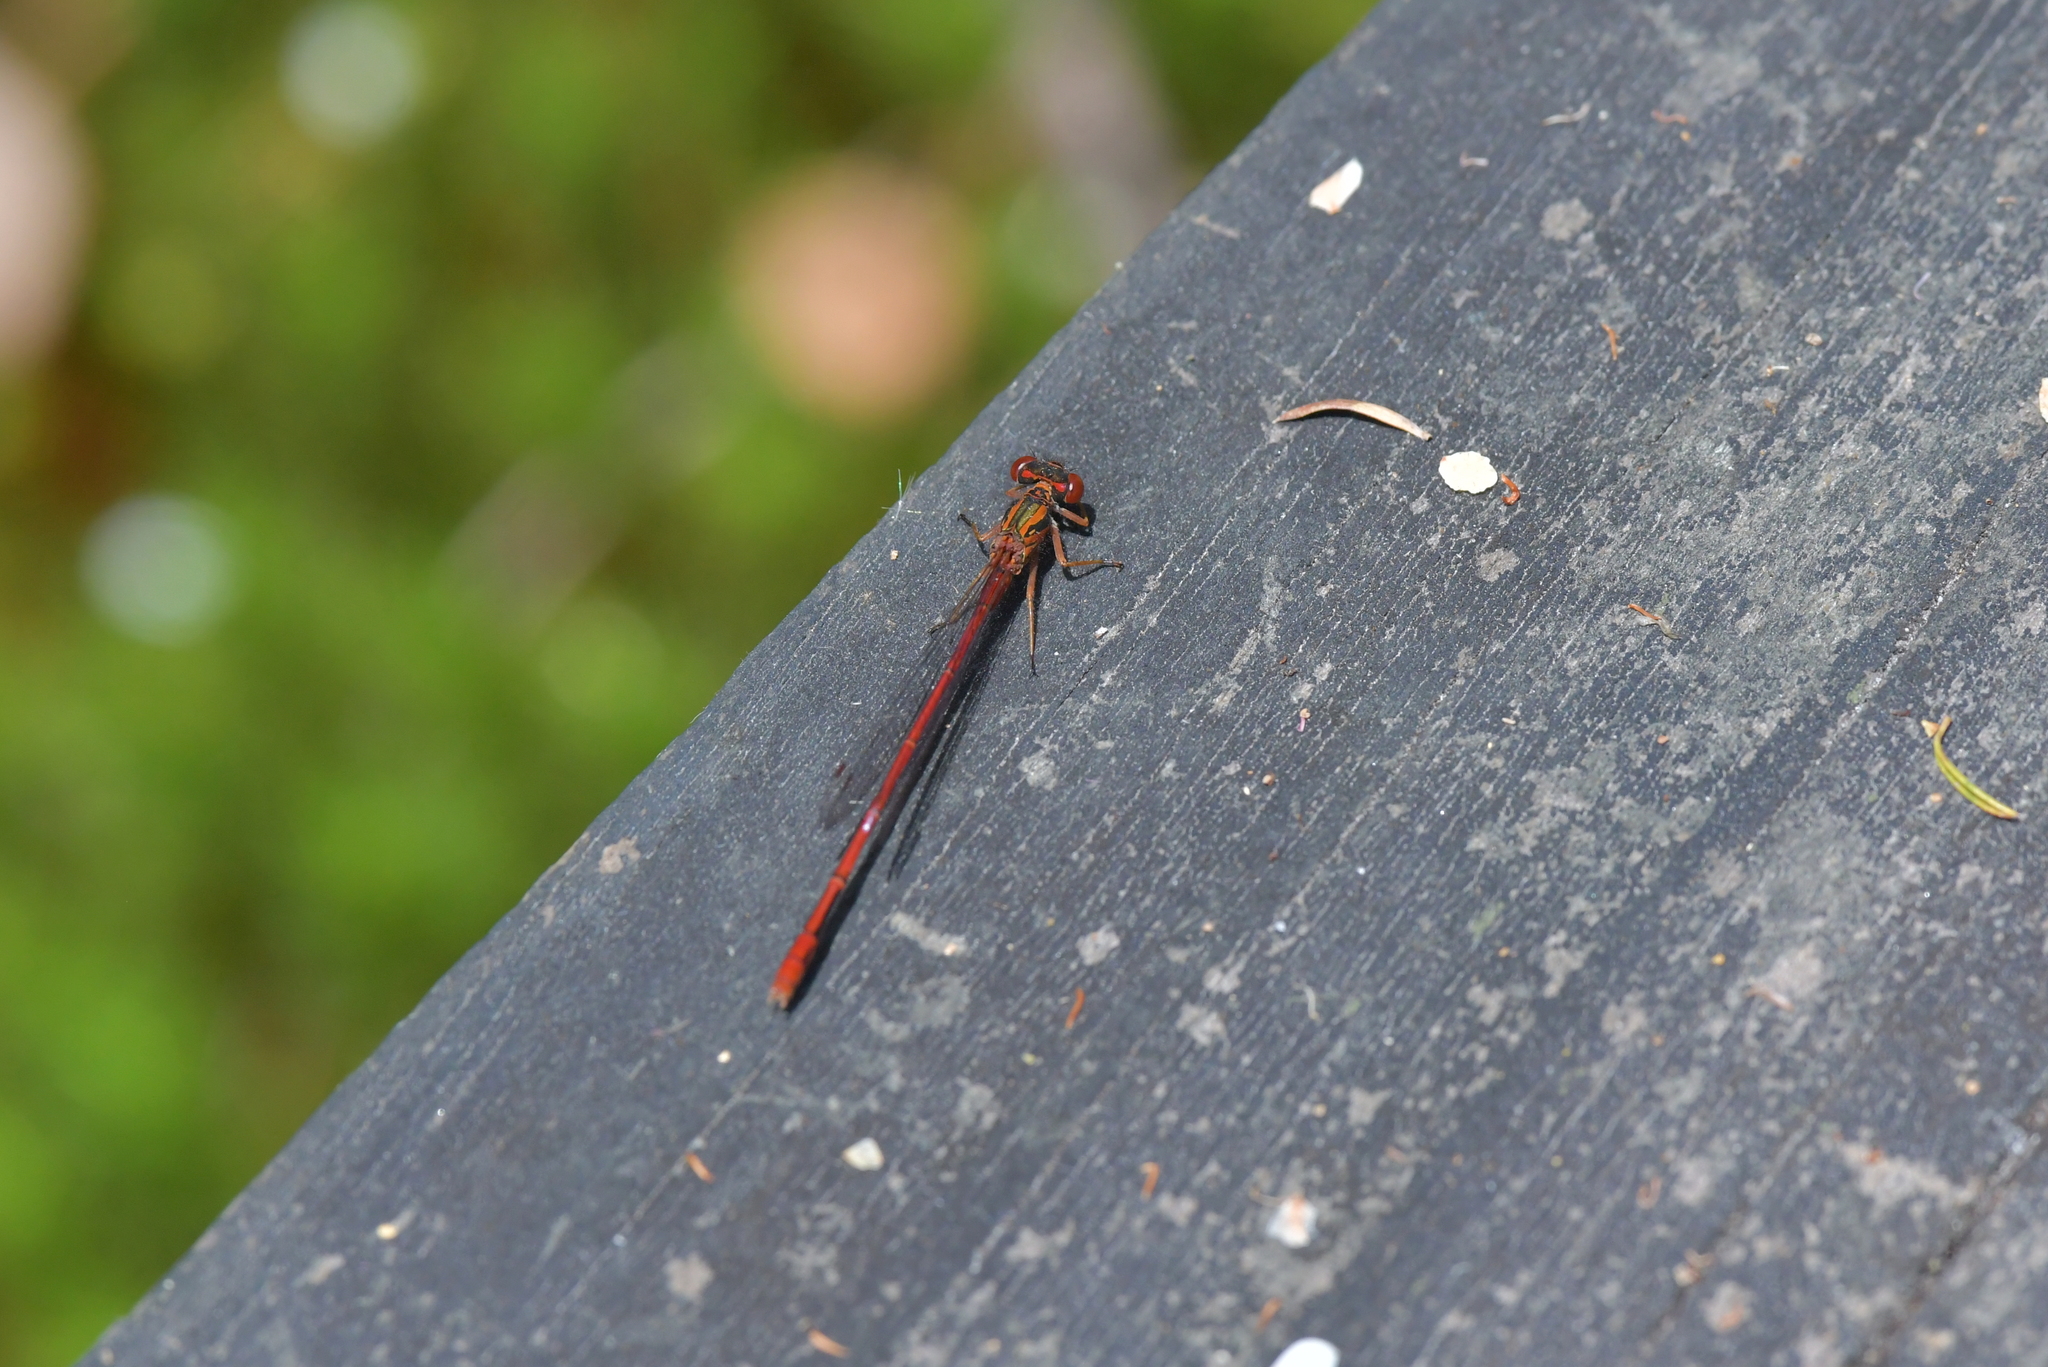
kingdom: Animalia
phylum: Arthropoda
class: Insecta
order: Odonata
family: Coenagrionidae
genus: Xanthocnemis
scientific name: Xanthocnemis zealandica
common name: Common redcoat damselfly
